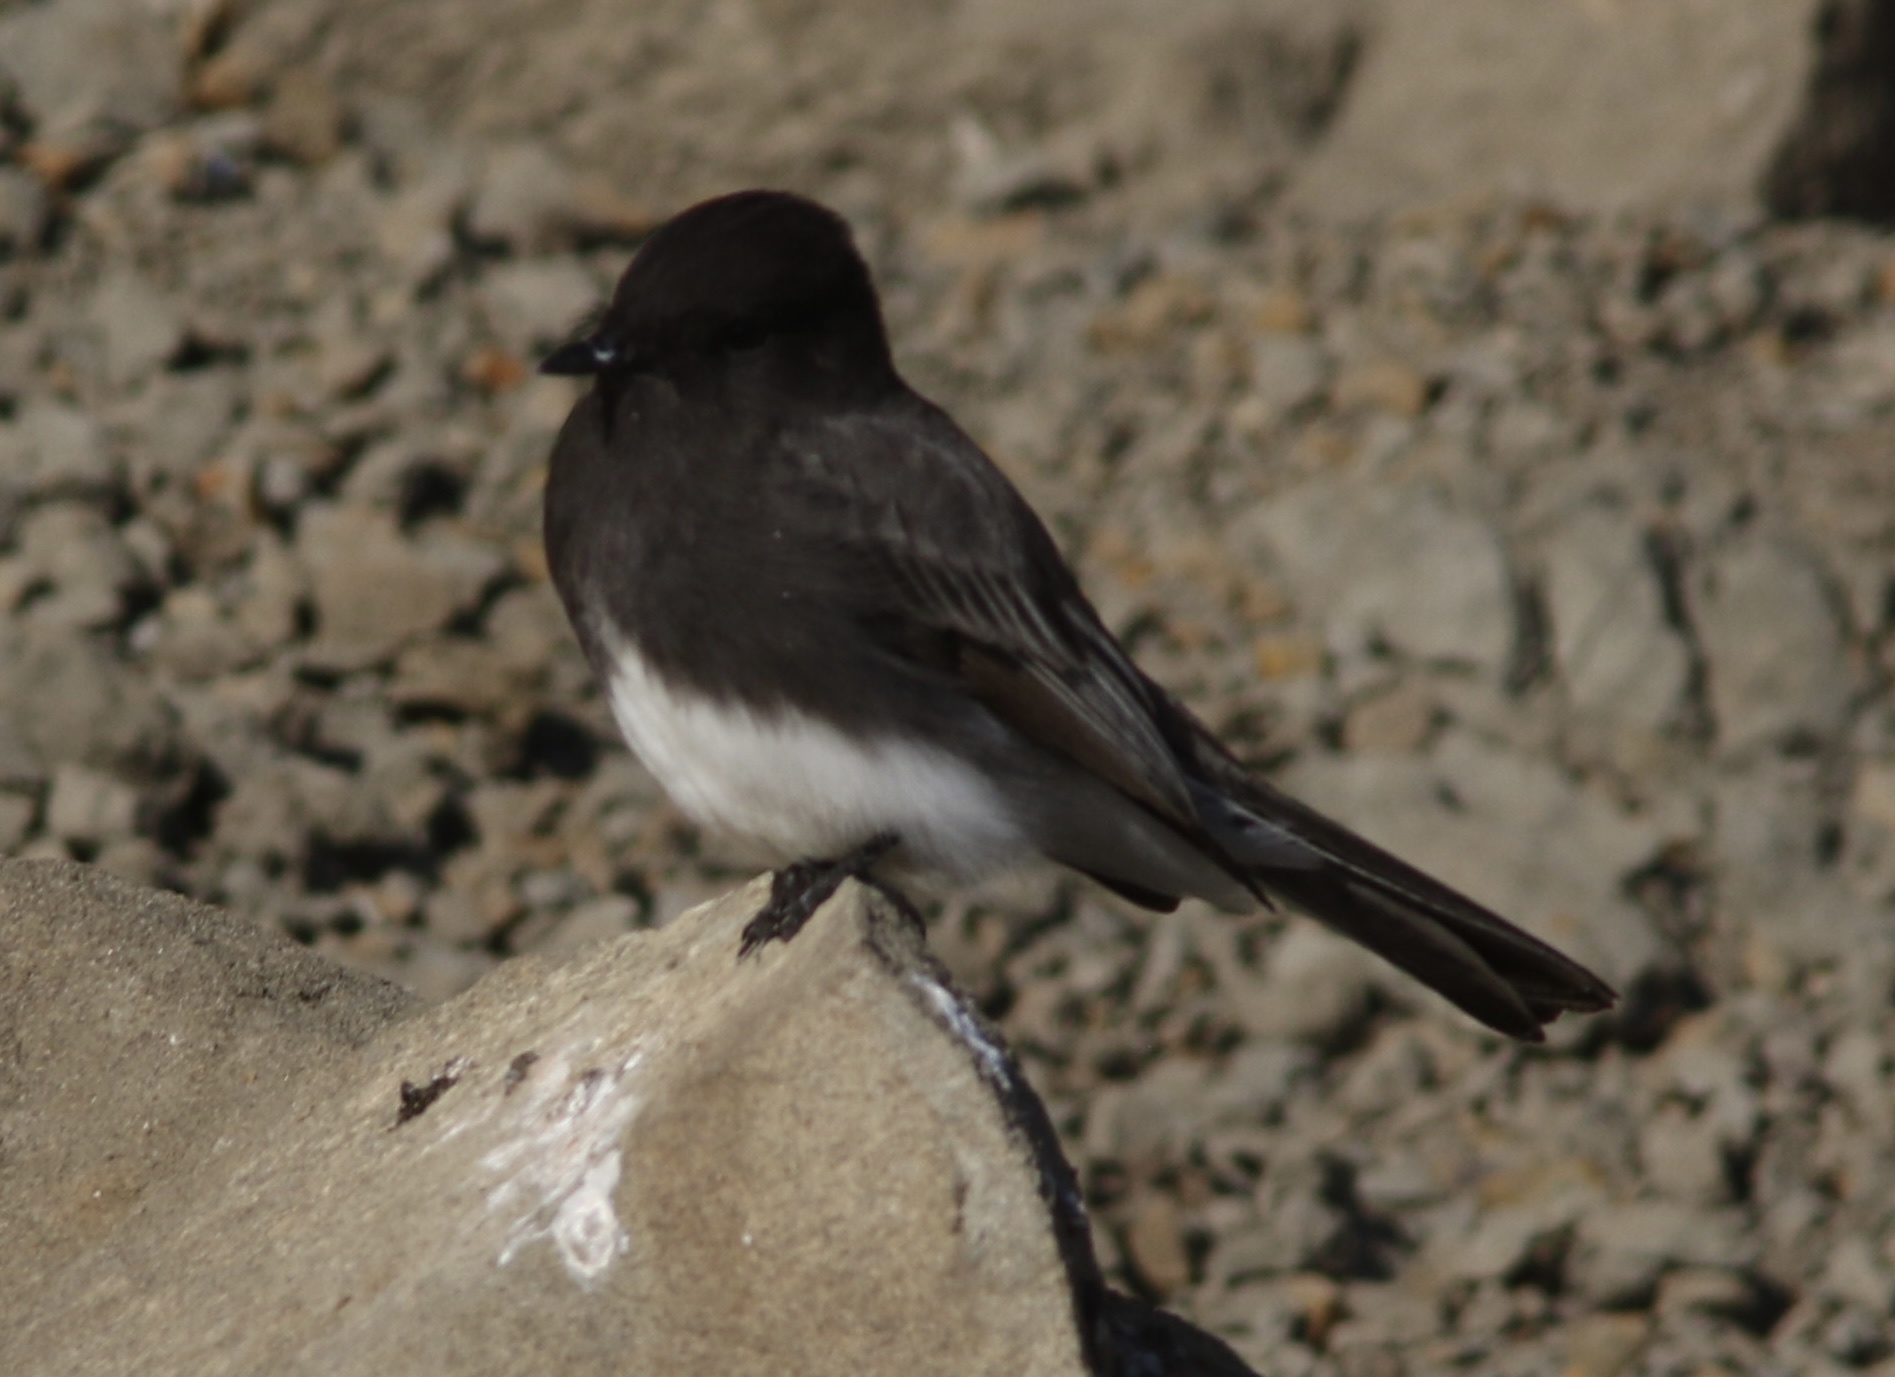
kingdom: Animalia
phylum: Chordata
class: Aves
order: Passeriformes
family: Tyrannidae
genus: Sayornis
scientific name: Sayornis nigricans
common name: Black phoebe
